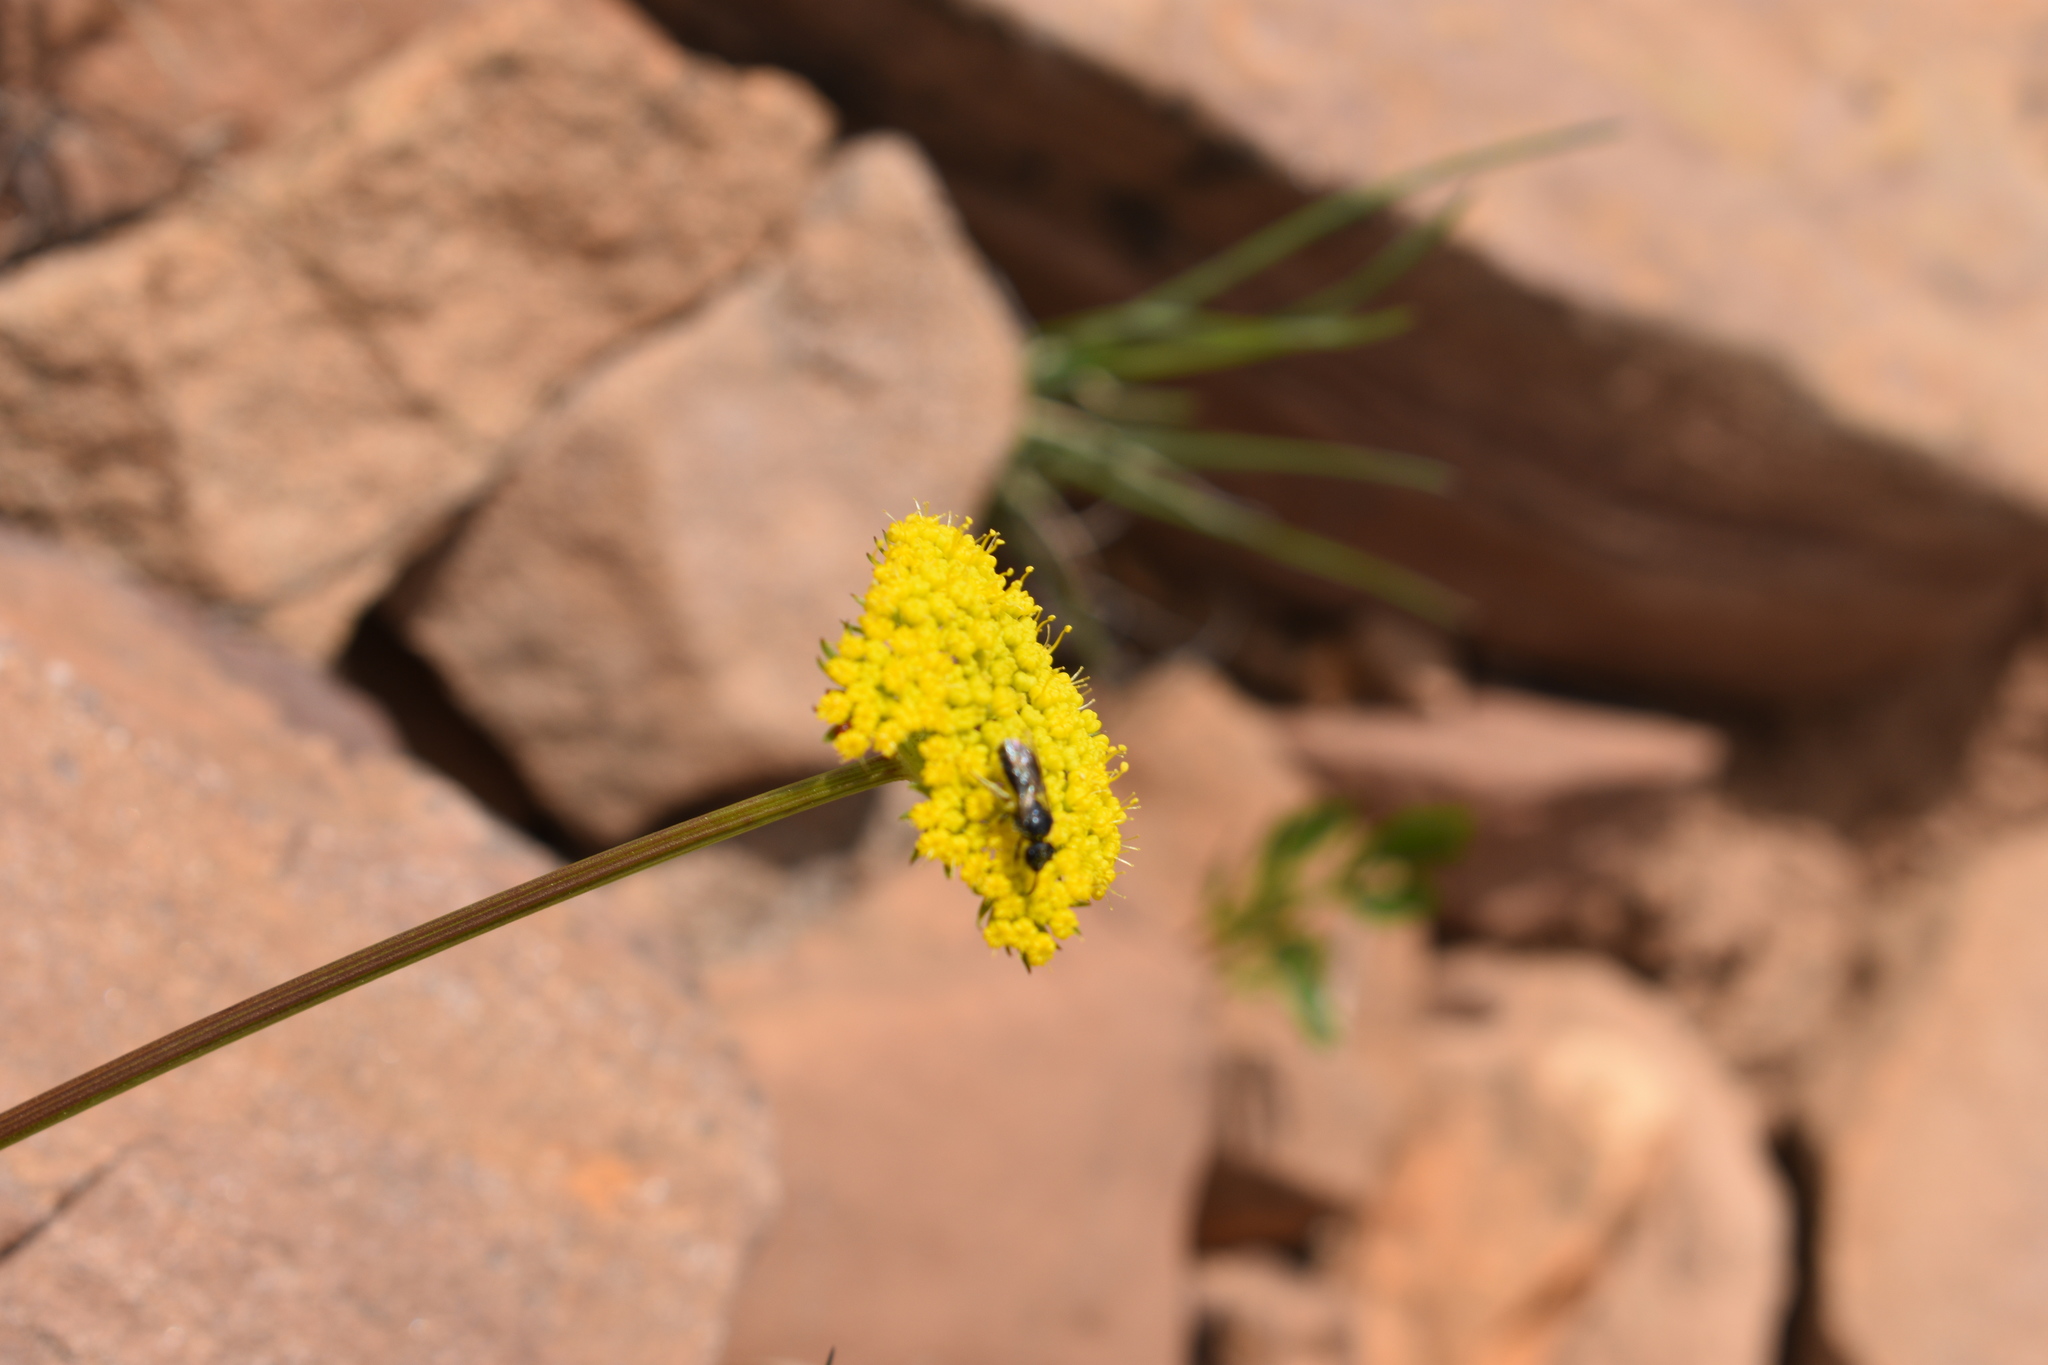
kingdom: Plantae
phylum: Tracheophyta
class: Magnoliopsida
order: Apiales
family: Apiaceae
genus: Cymopterus
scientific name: Cymopterus lemmonii
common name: Lemmon's spring-parsley
